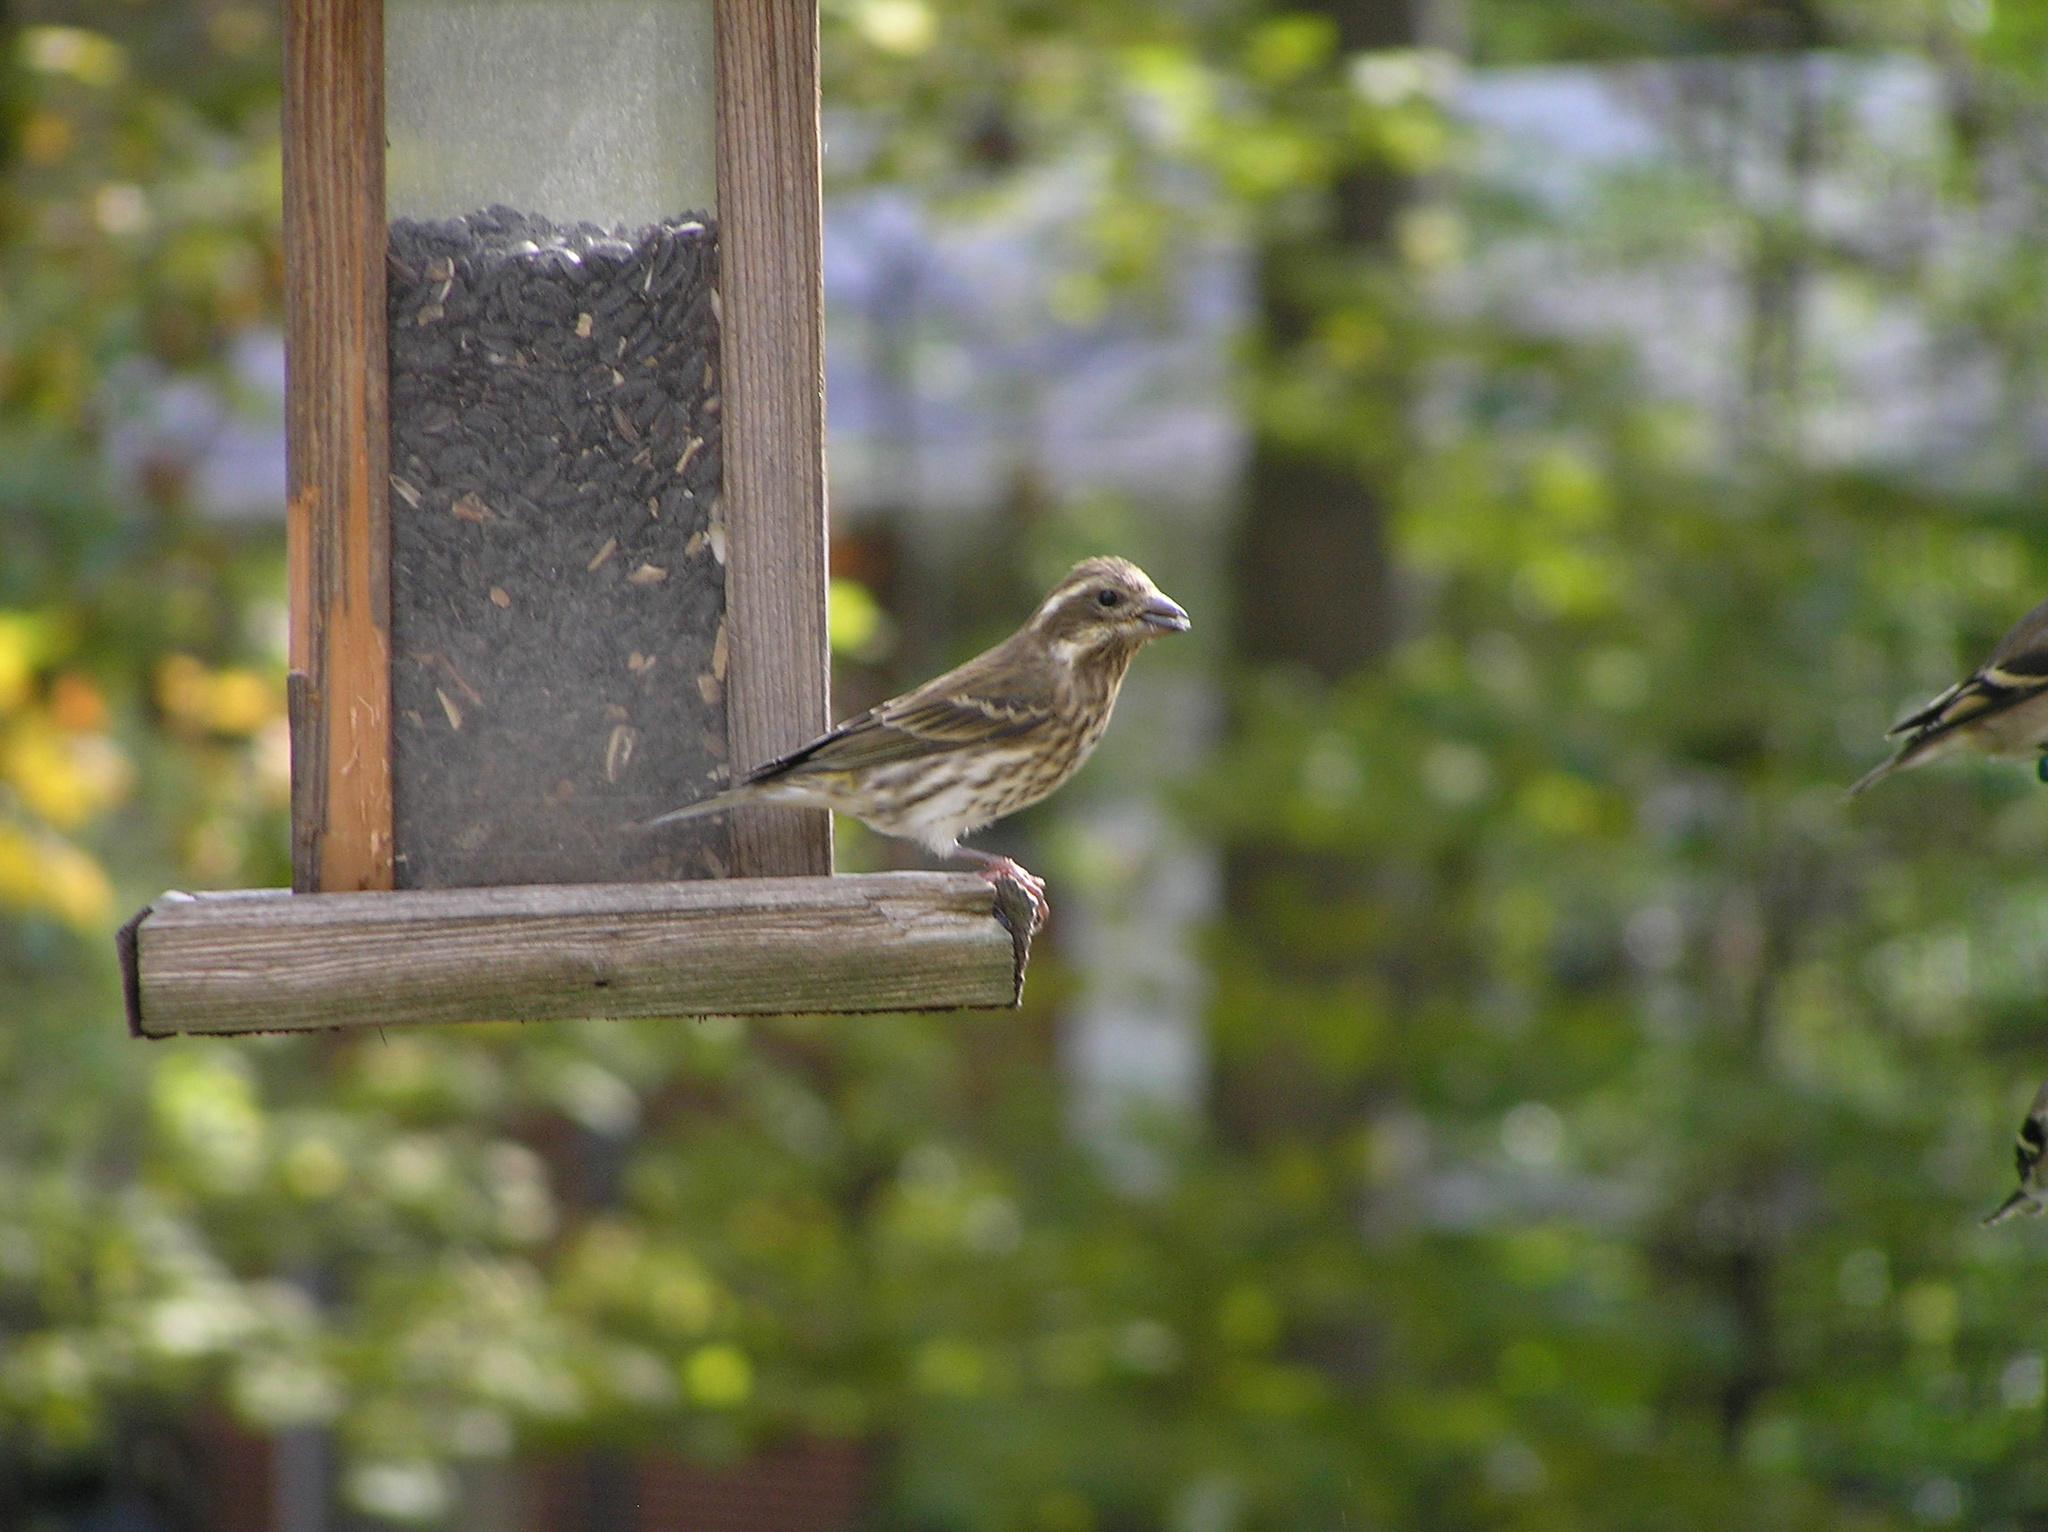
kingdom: Animalia
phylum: Chordata
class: Aves
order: Passeriformes
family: Fringillidae
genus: Haemorhous
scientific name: Haemorhous purpureus
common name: Purple finch
